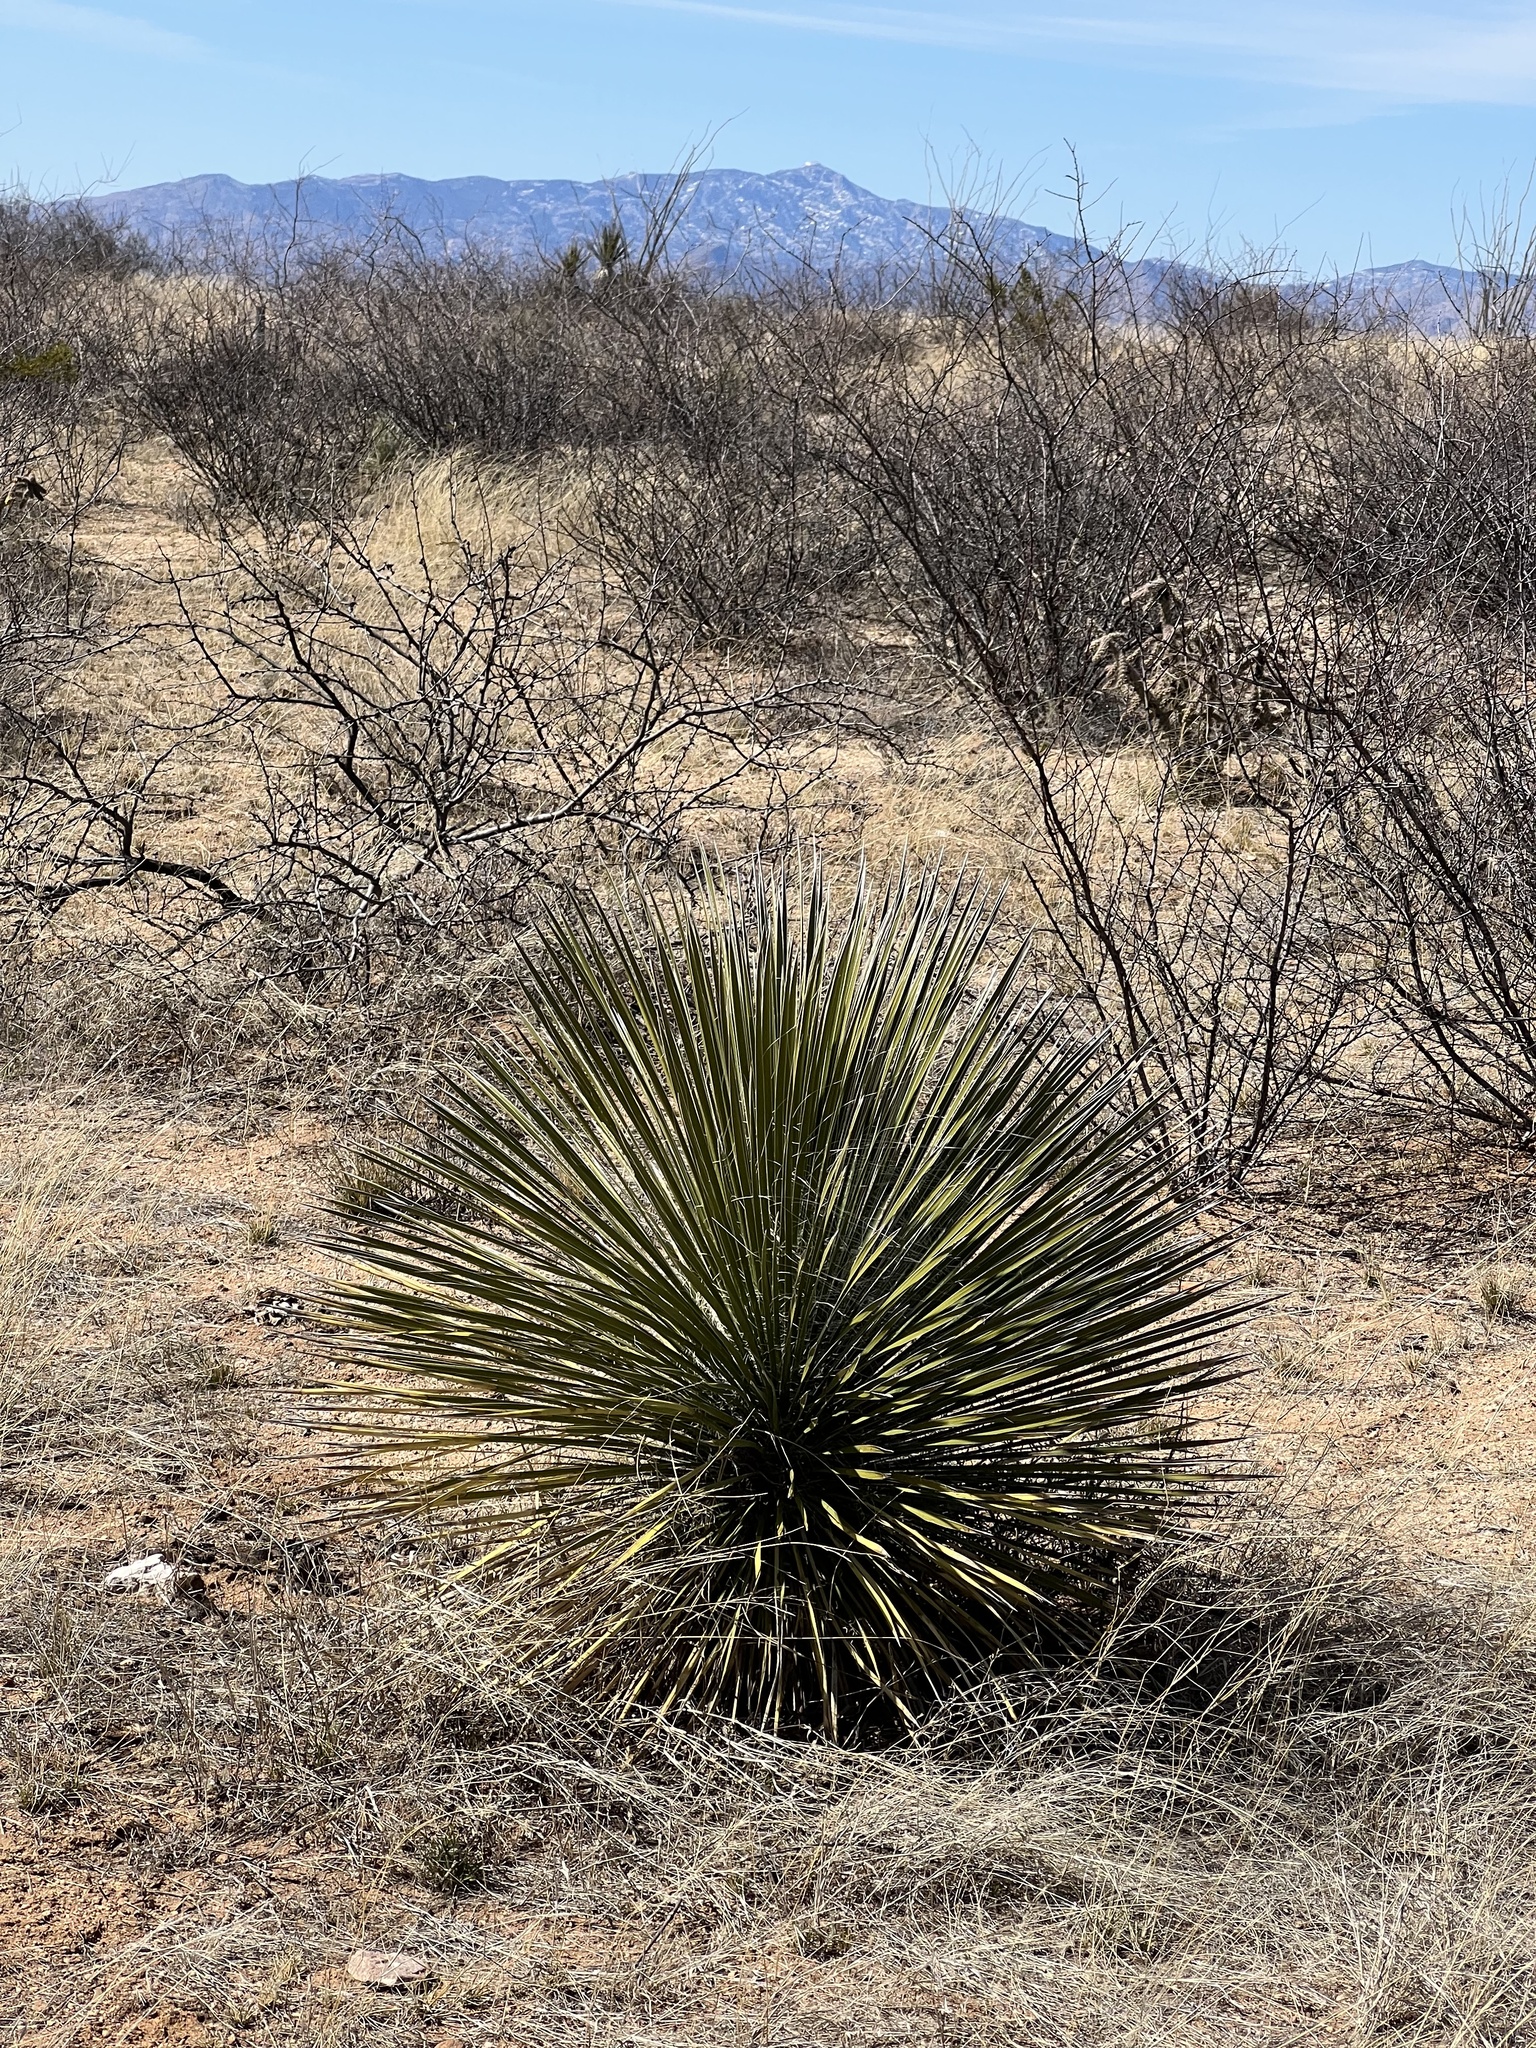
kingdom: Plantae
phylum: Tracheophyta
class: Liliopsida
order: Asparagales
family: Asparagaceae
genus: Yucca
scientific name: Yucca elata
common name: Palmella
